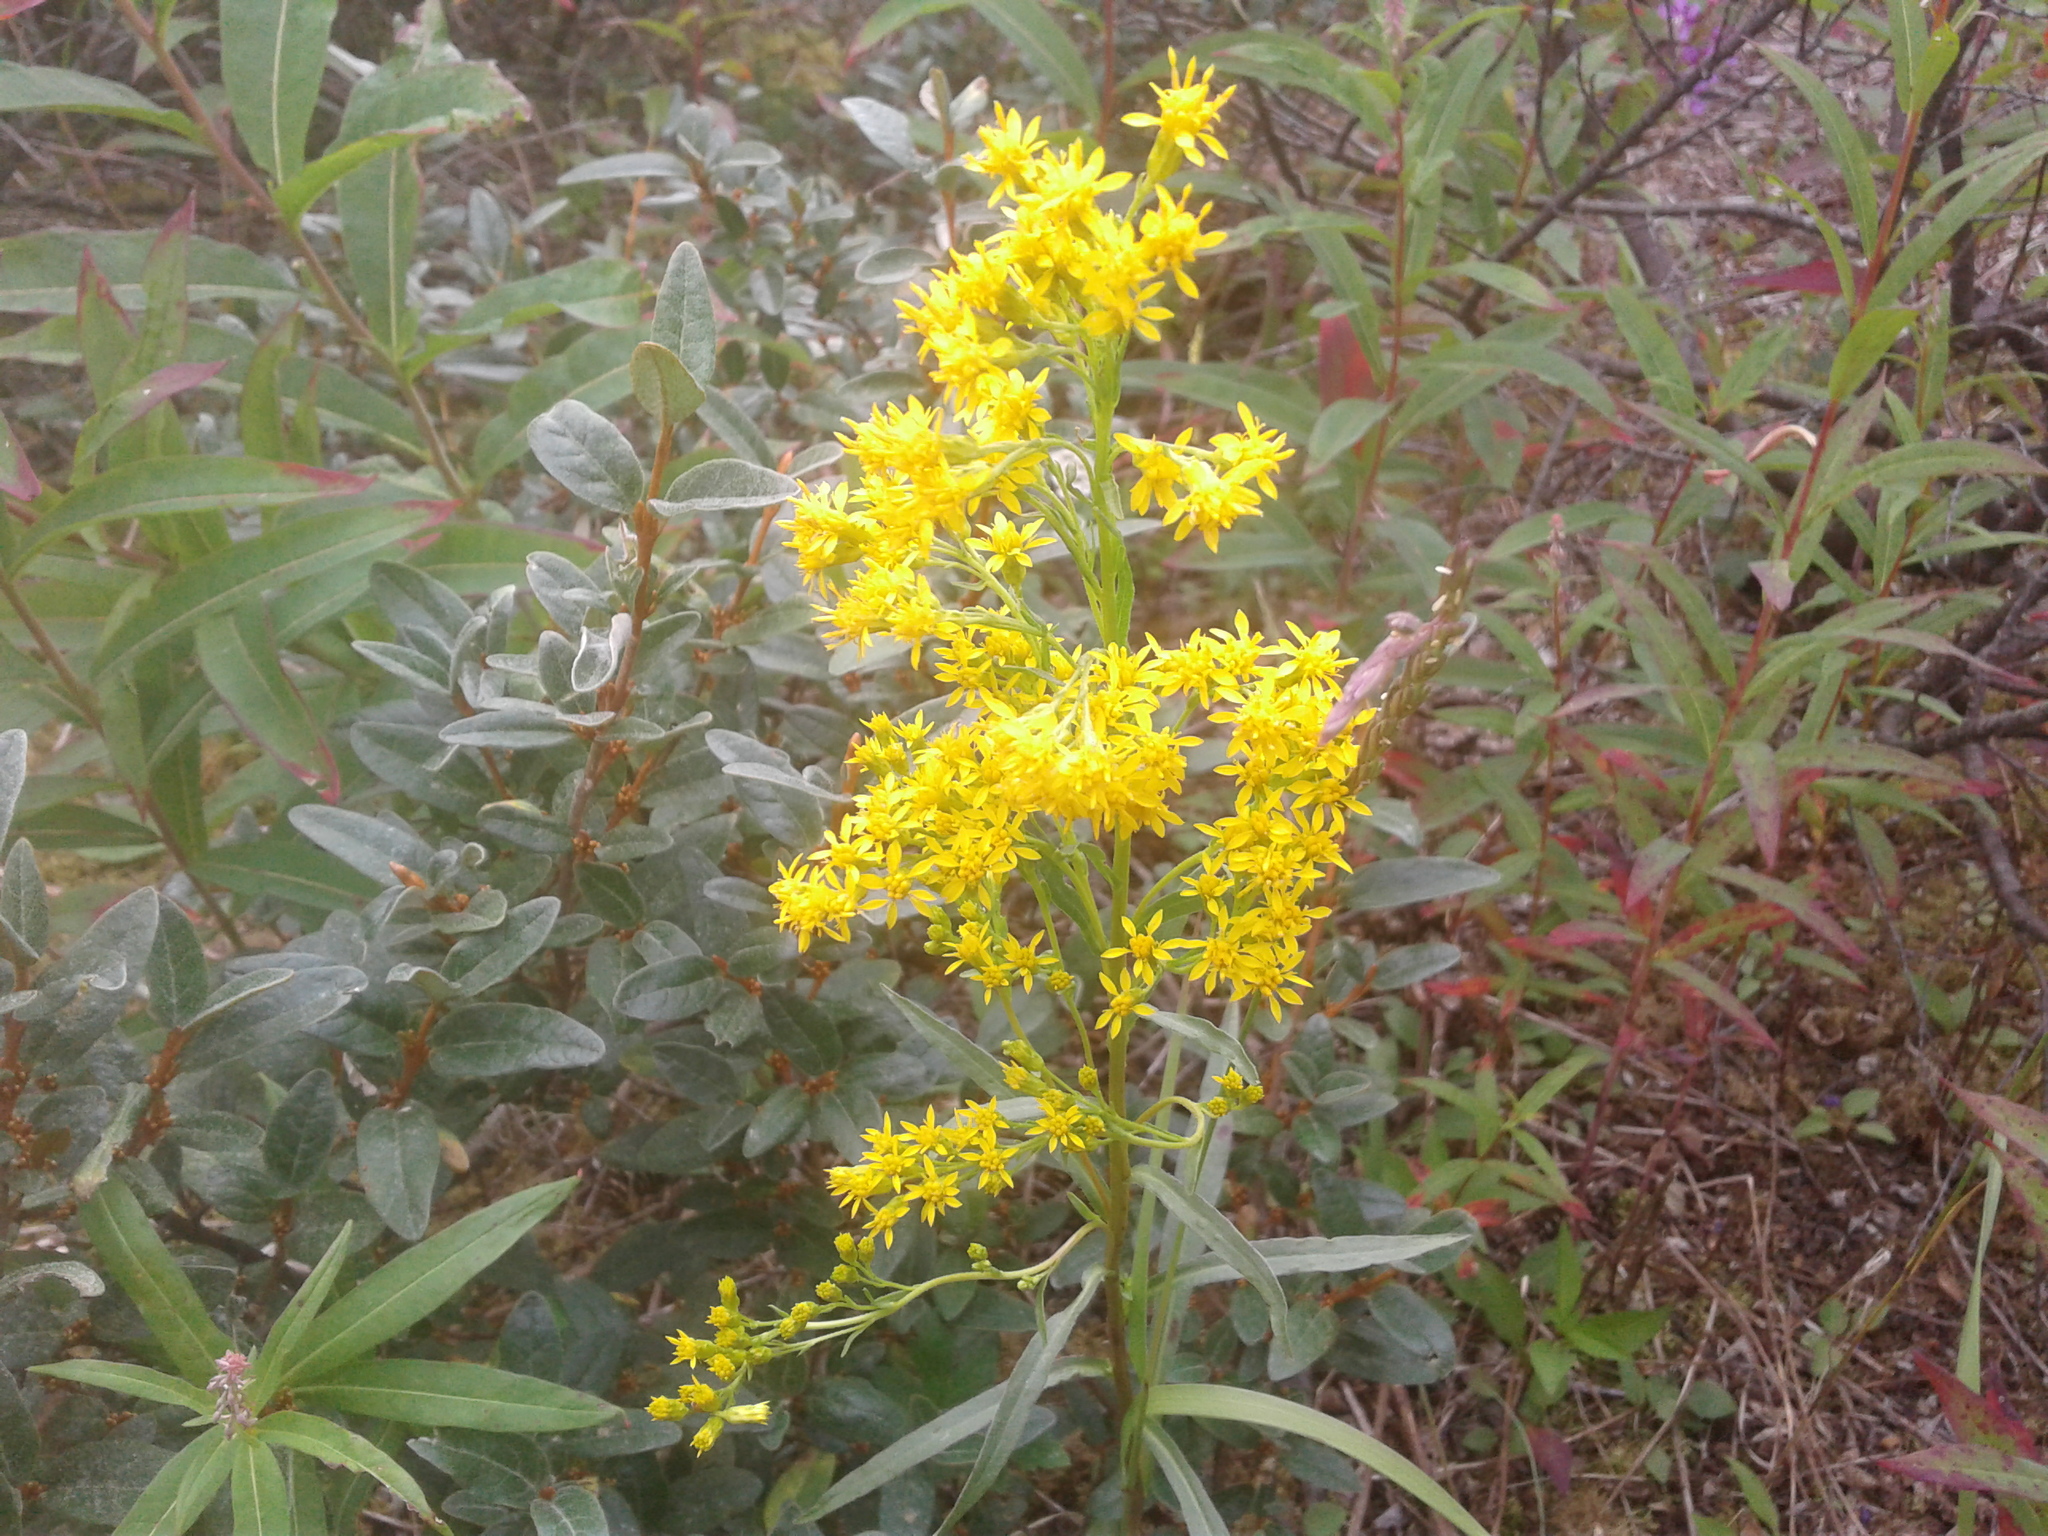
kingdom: Plantae
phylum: Tracheophyta
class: Magnoliopsida
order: Asterales
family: Asteraceae
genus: Solidago
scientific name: Solidago uliginosa
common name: Bog goldenrod
